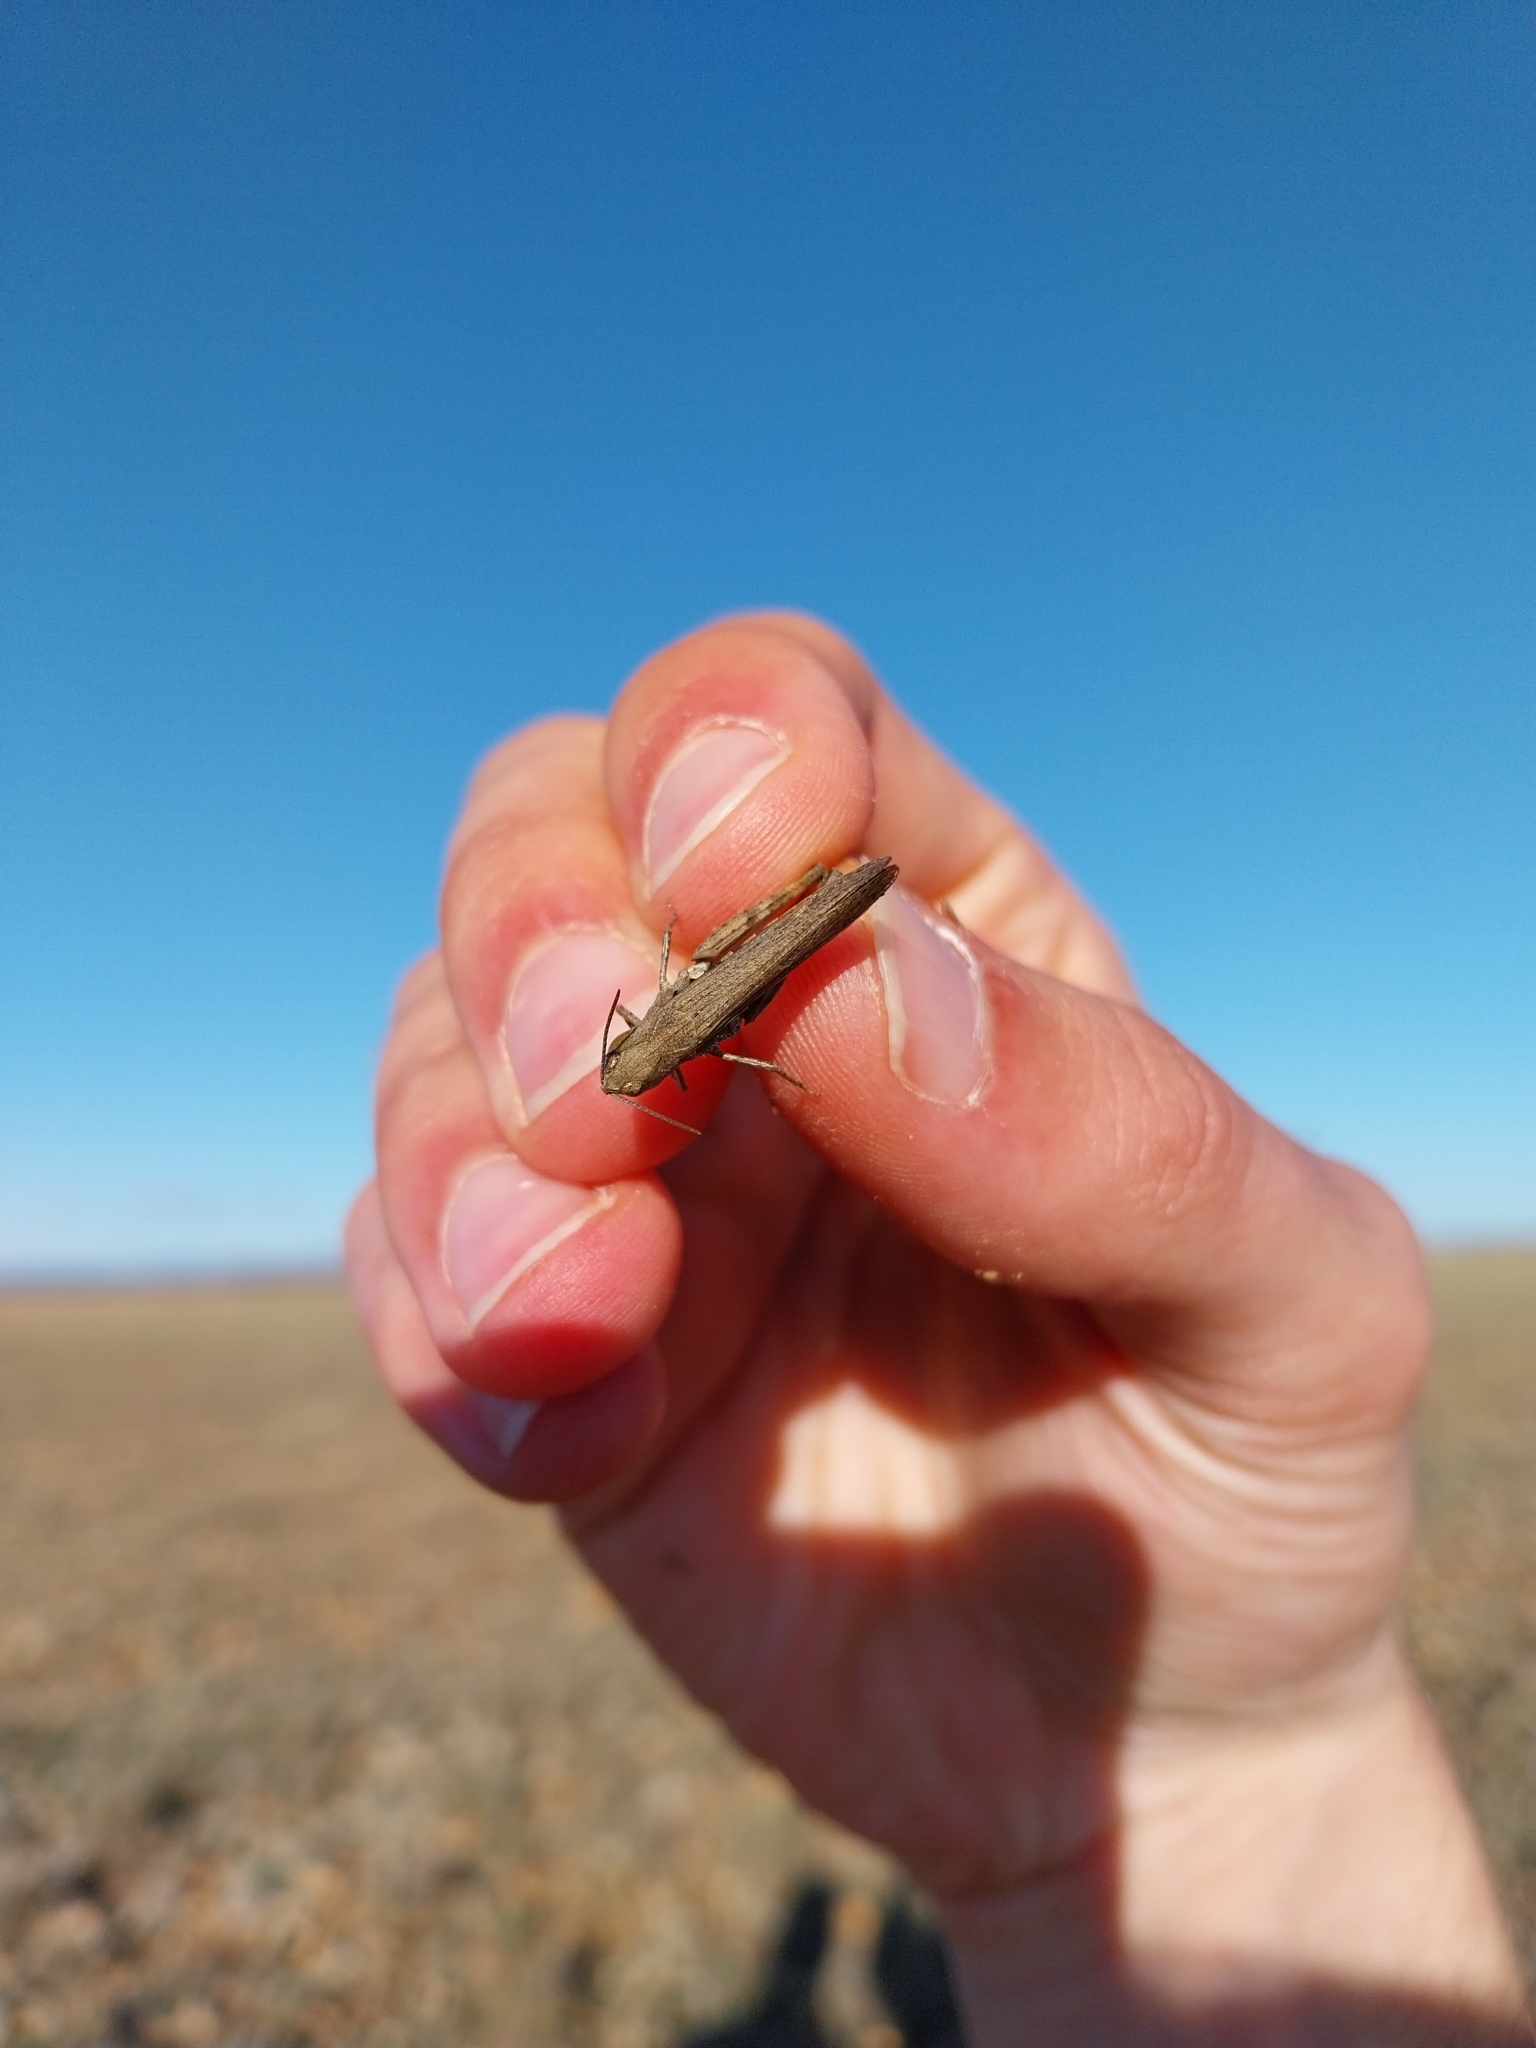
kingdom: Animalia
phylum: Arthropoda
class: Insecta
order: Orthoptera
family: Acrididae
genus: Omocestus
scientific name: Omocestus raymondi
